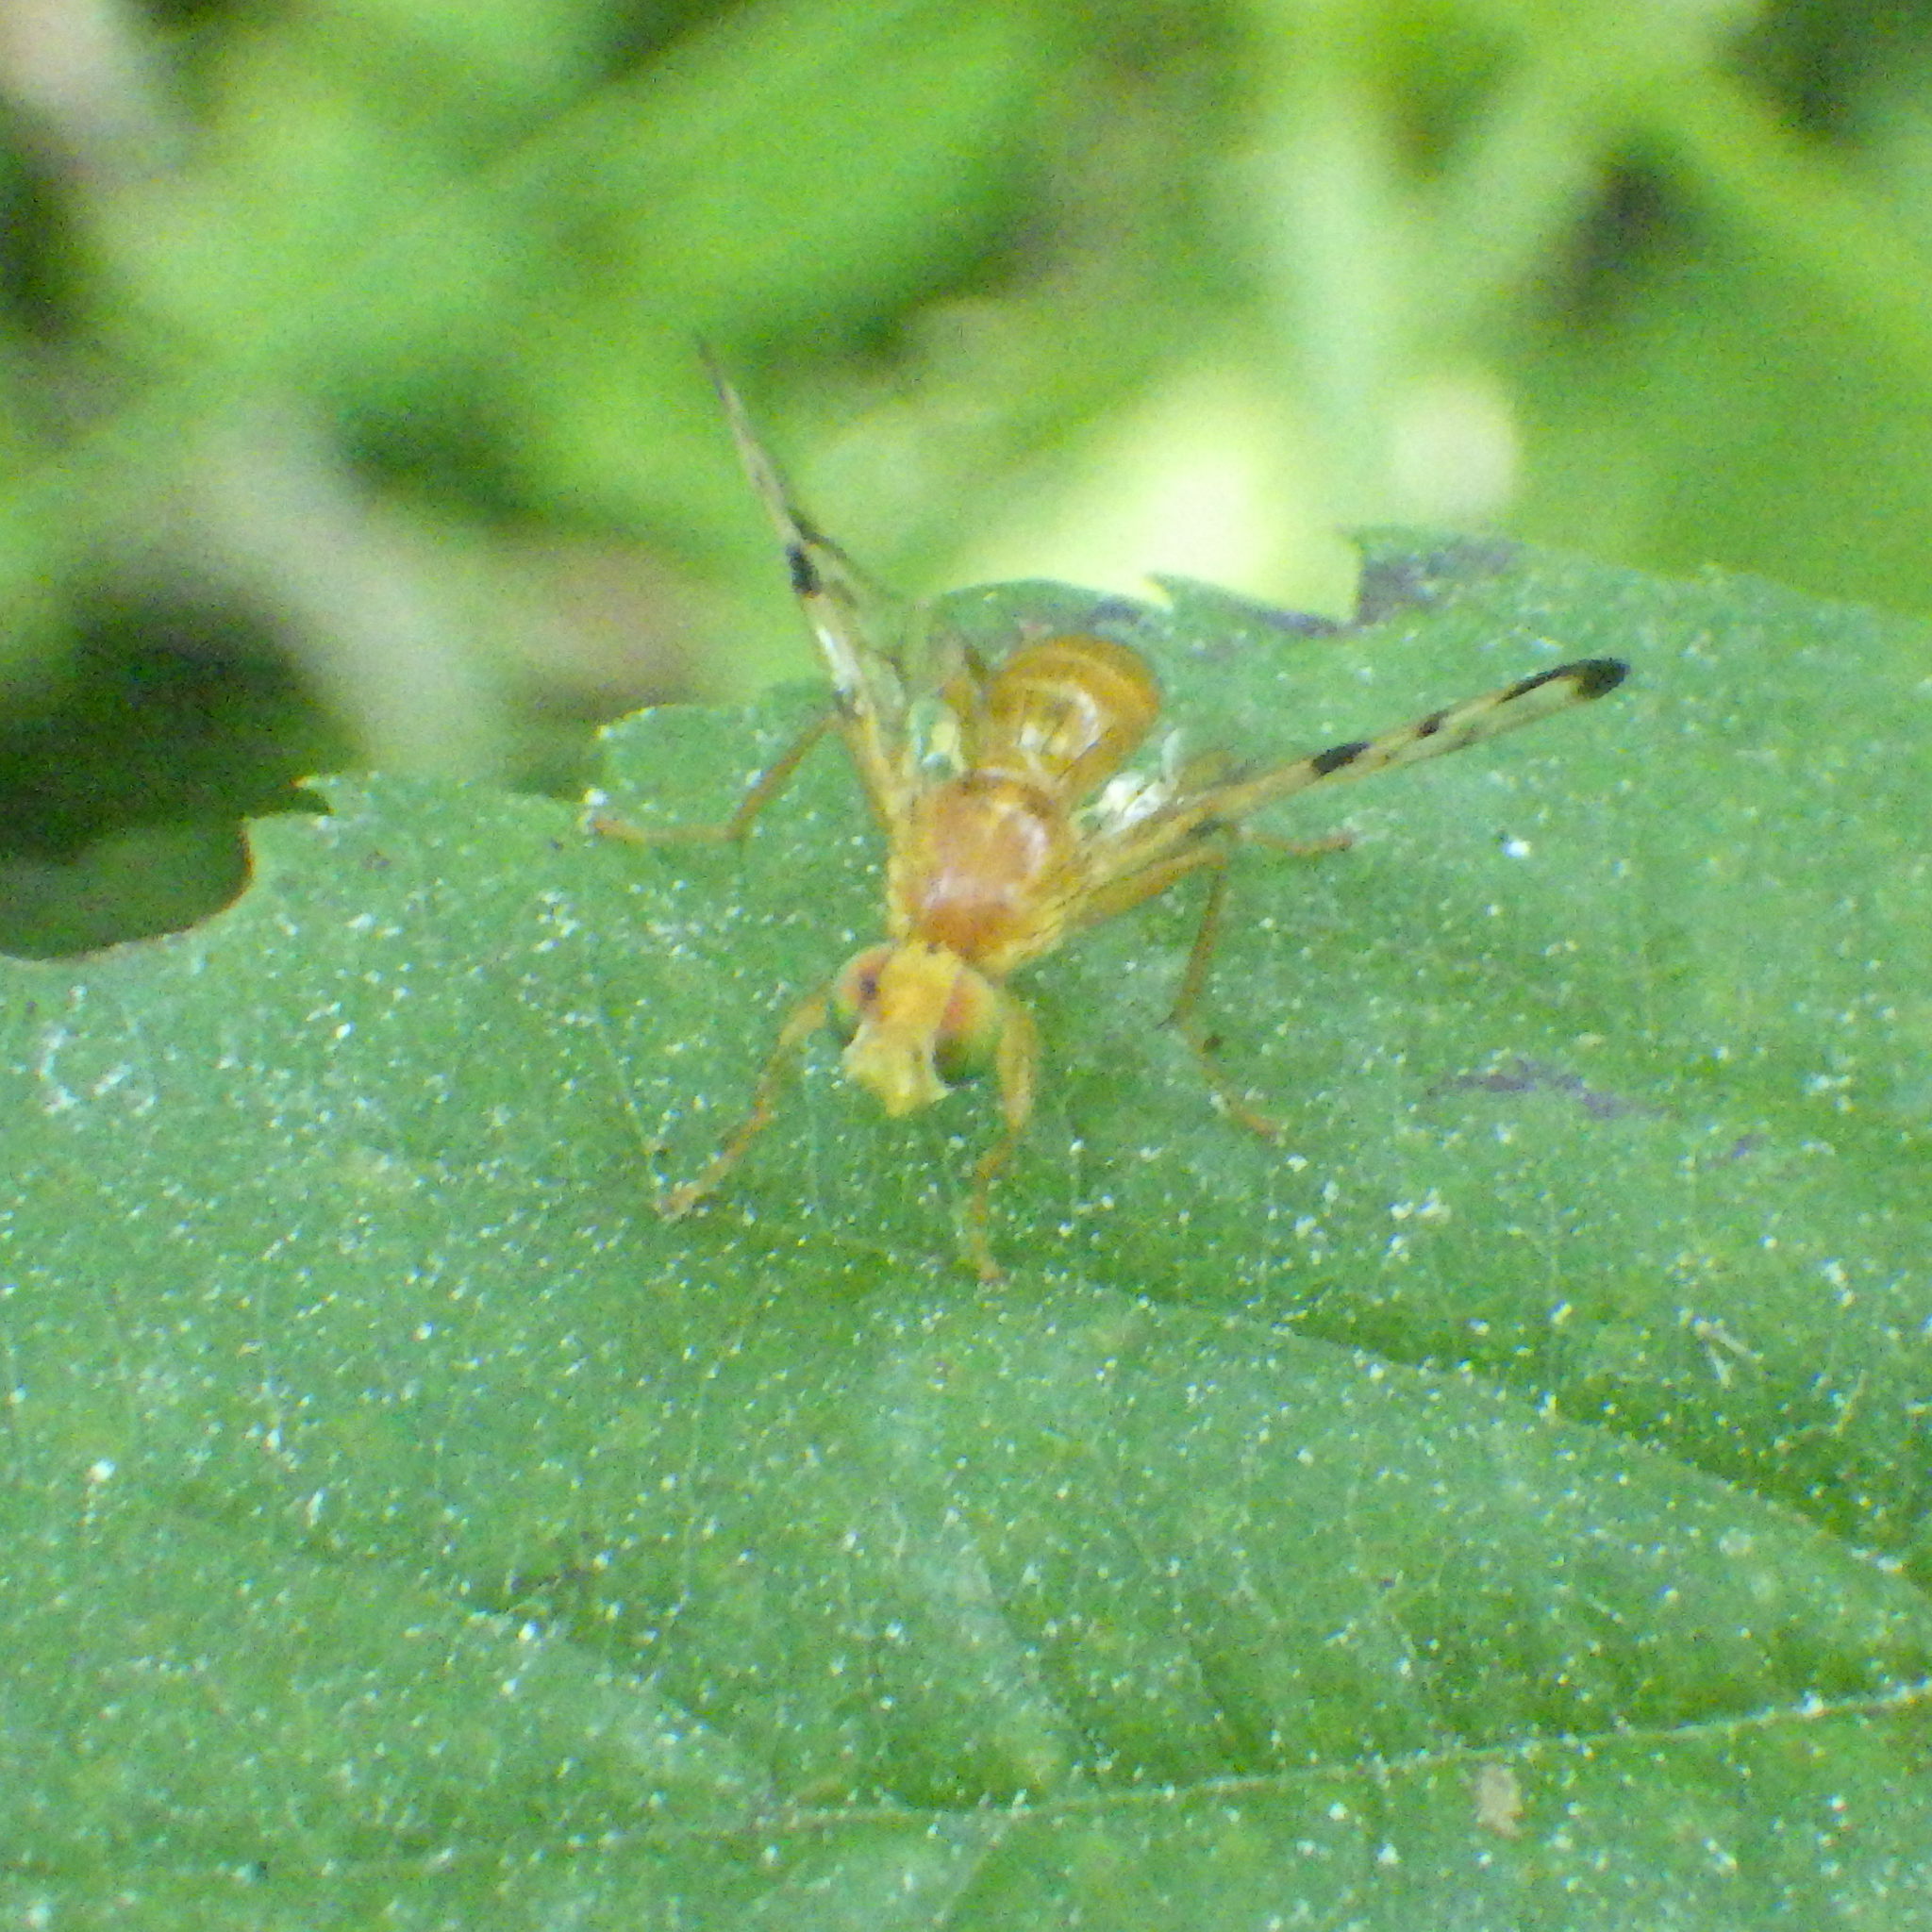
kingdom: Animalia
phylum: Arthropoda
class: Insecta
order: Diptera
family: Tephritidae
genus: Acidia
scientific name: Acidia cognata
